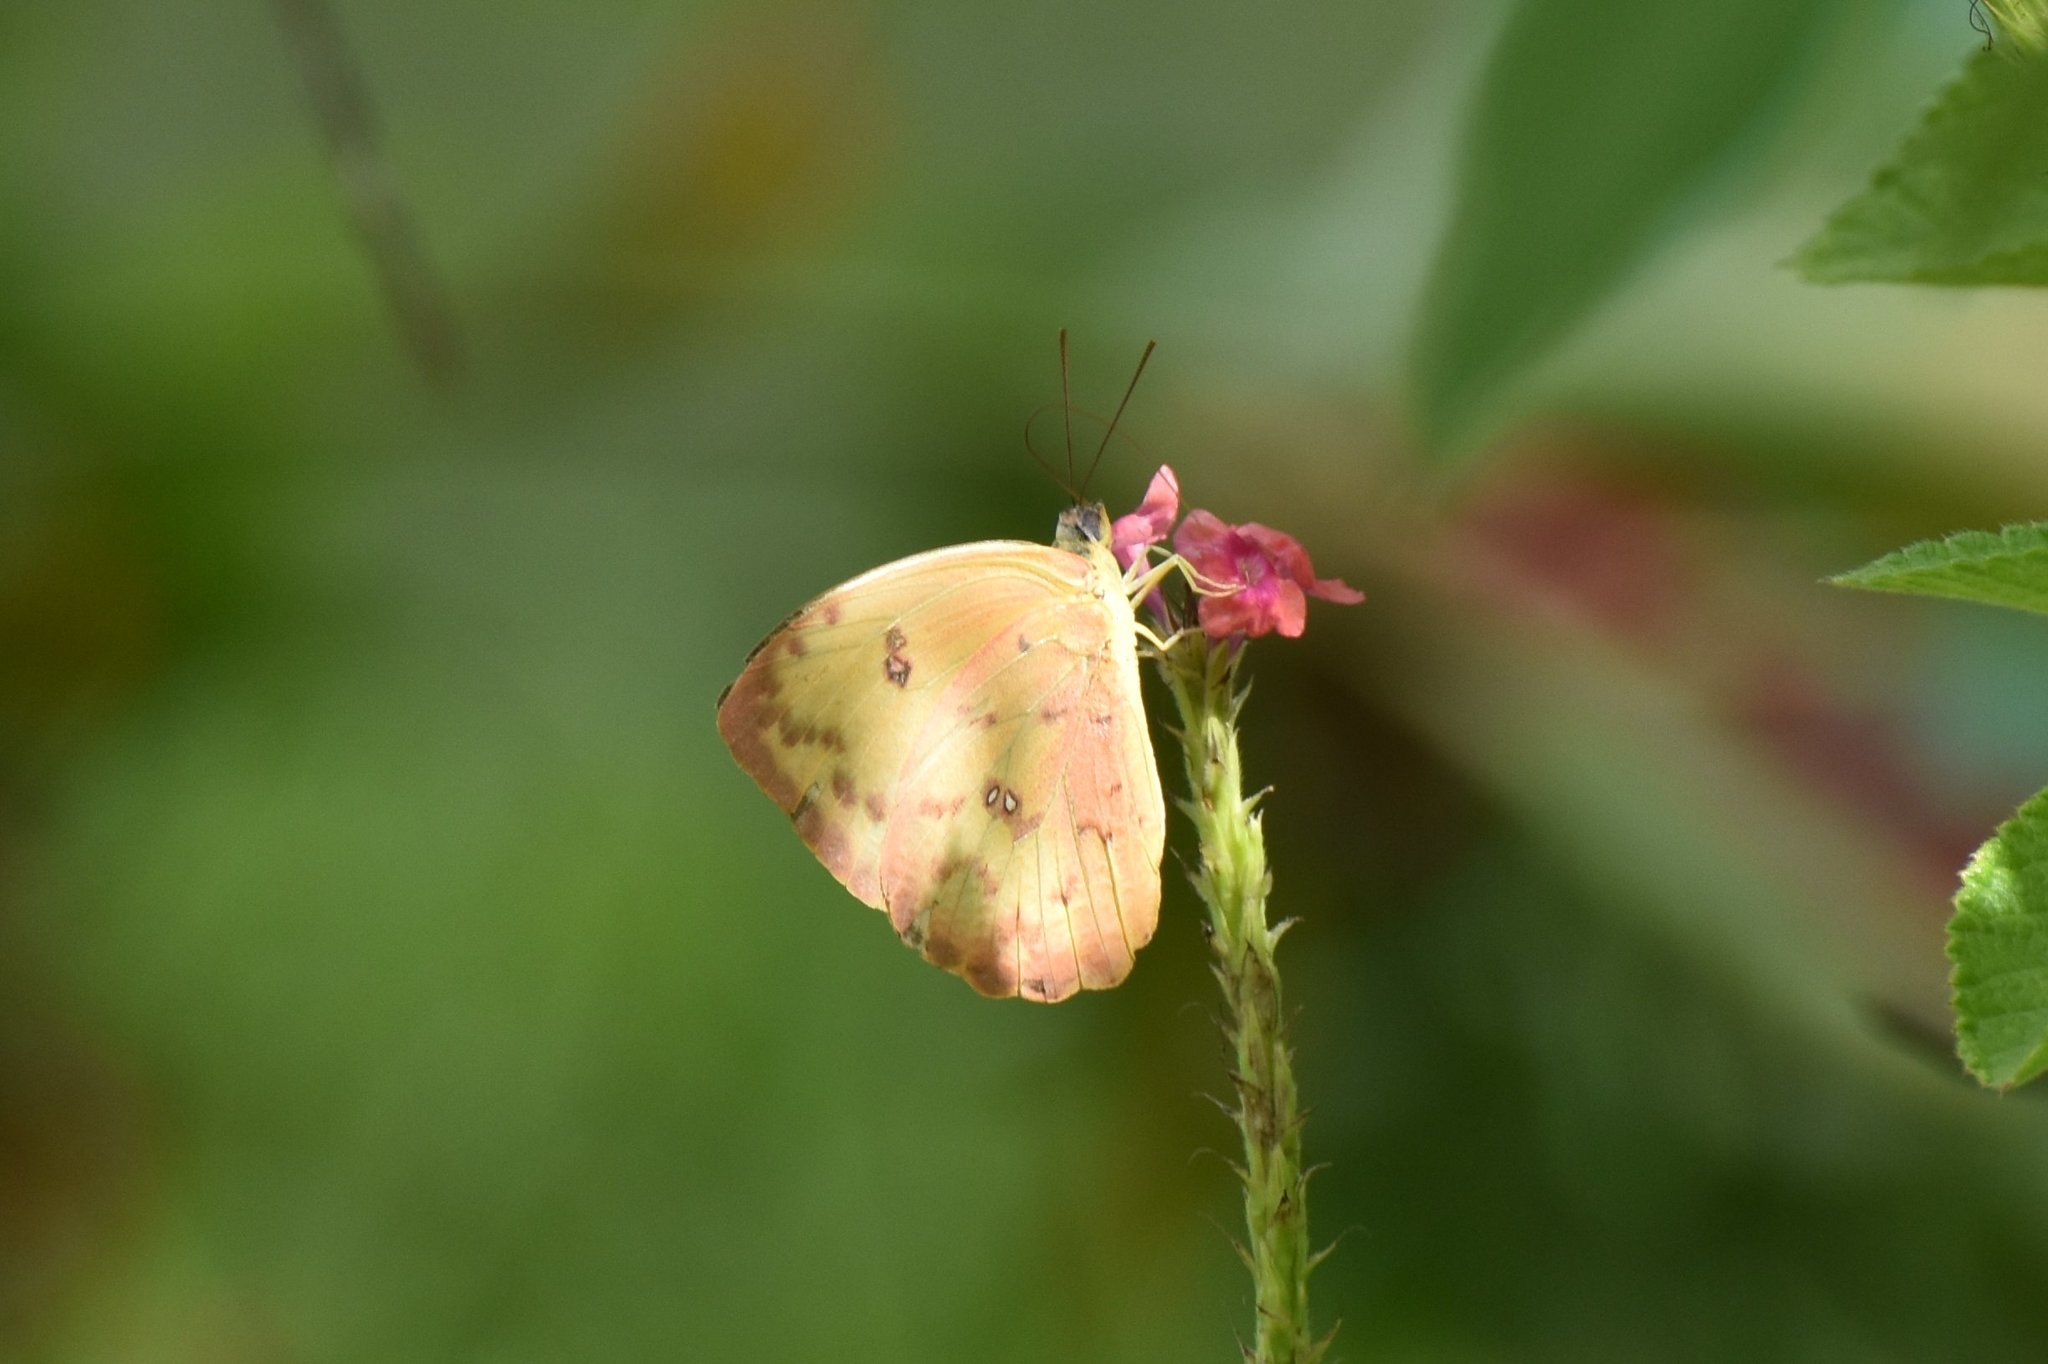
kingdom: Animalia
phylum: Arthropoda
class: Insecta
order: Lepidoptera
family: Pieridae
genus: Phoebis
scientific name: Phoebis sennae
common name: Cloudless sulphur
